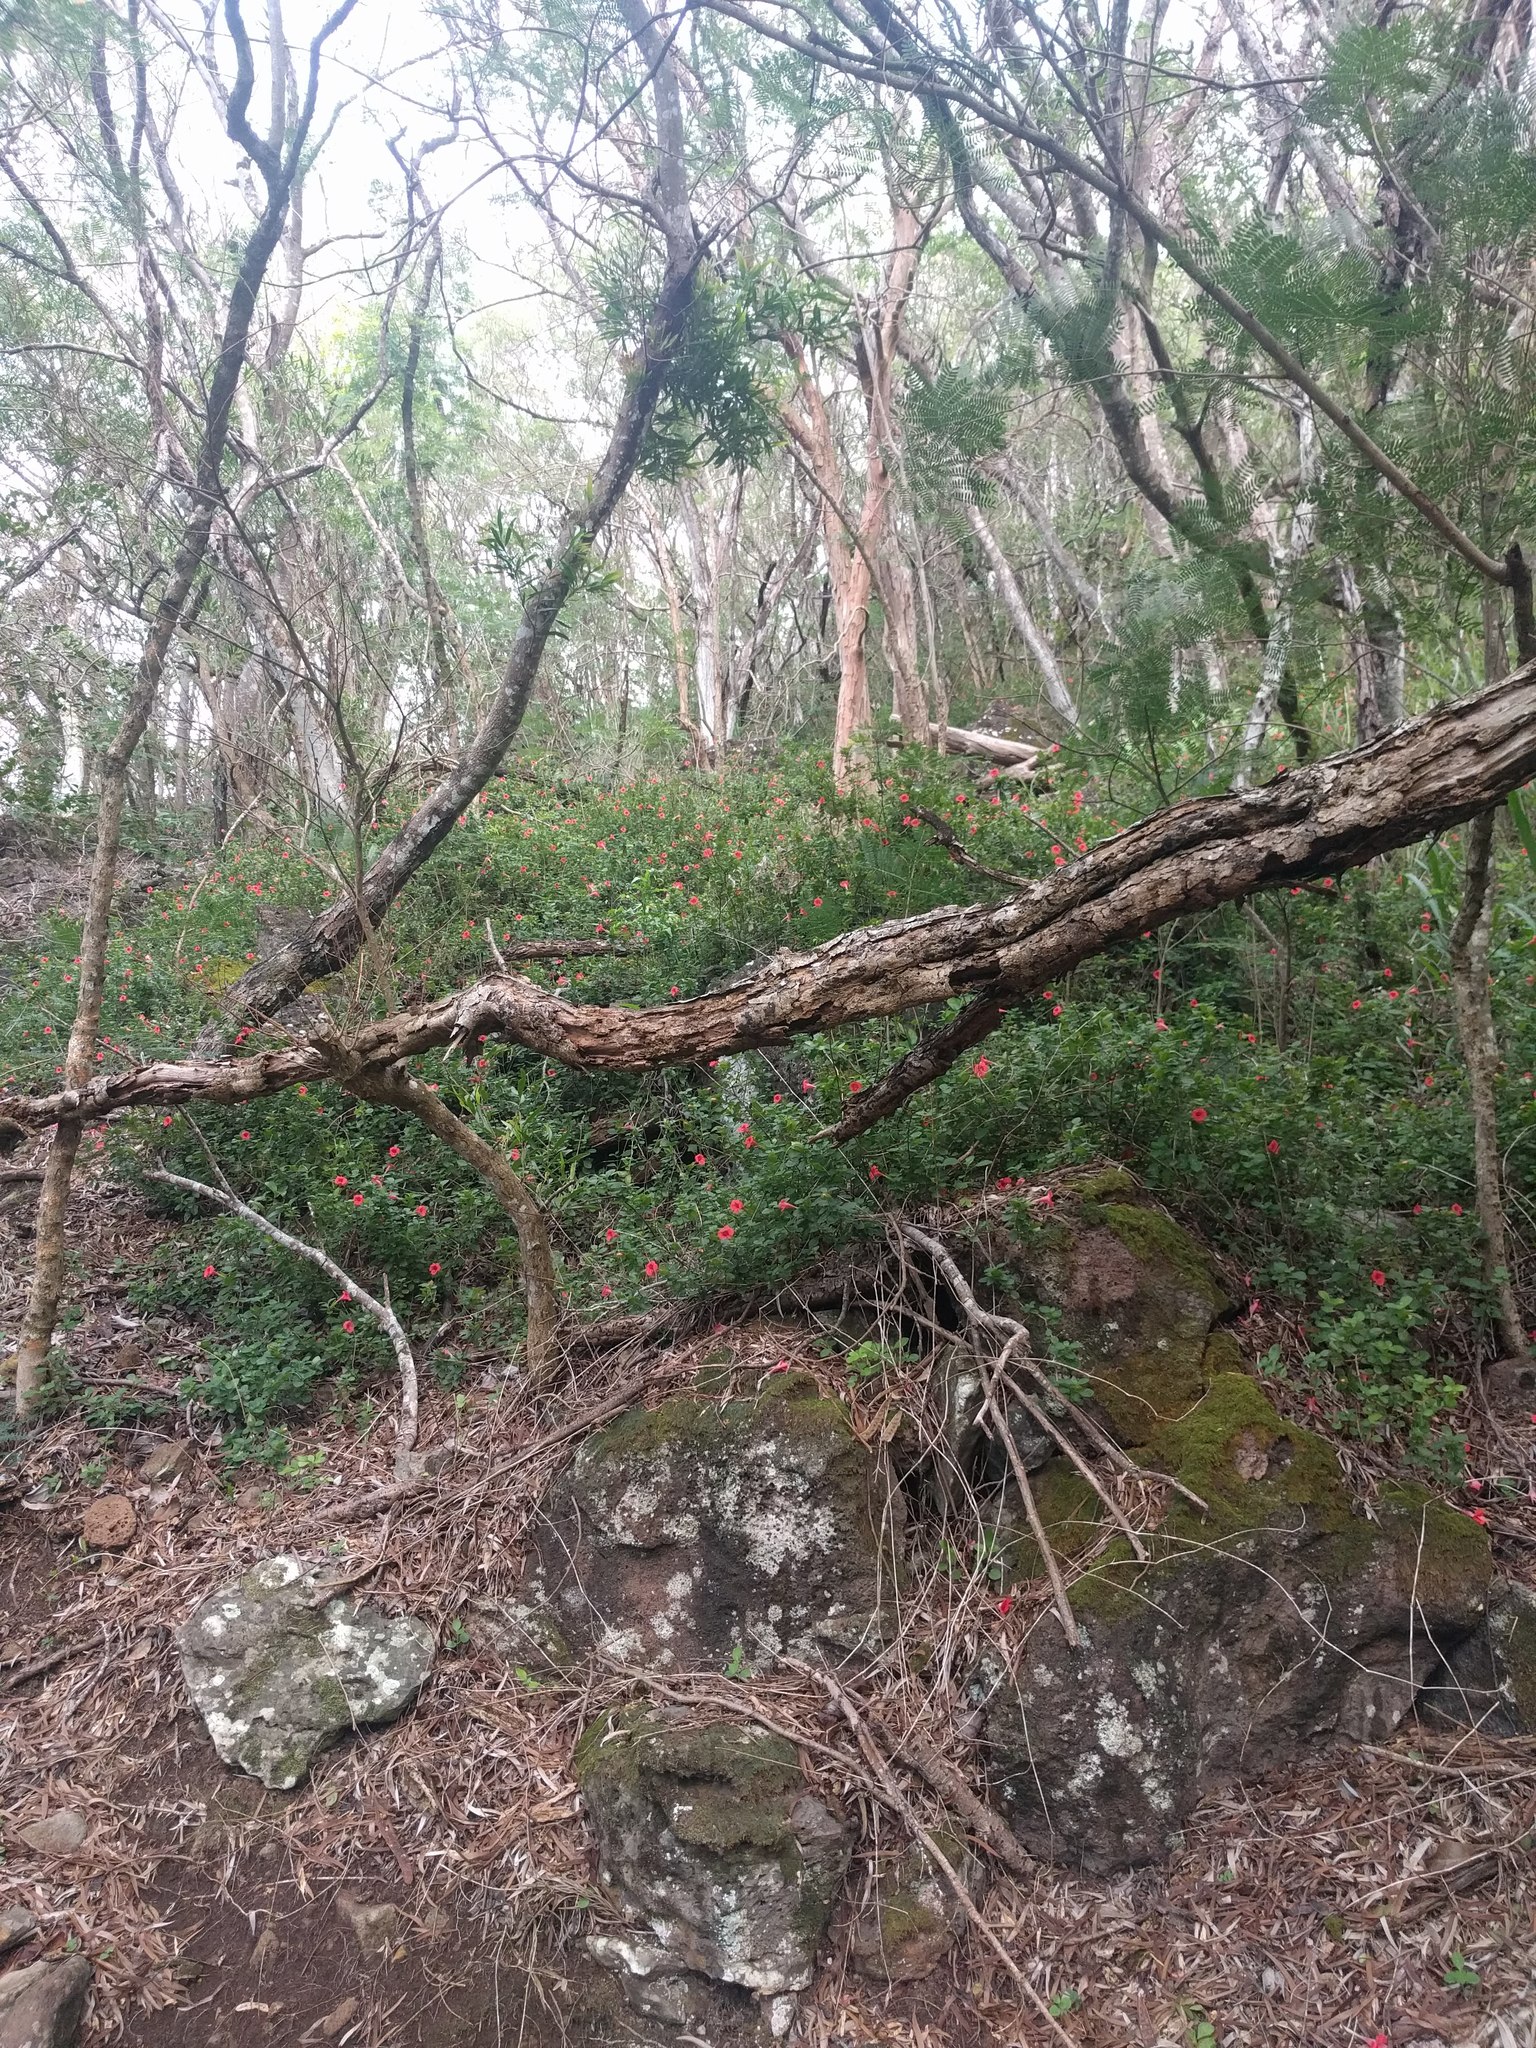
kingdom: Plantae
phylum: Tracheophyta
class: Magnoliopsida
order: Lamiales
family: Acanthaceae
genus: Barleria
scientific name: Barleria repens
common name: Pink-ruellia
